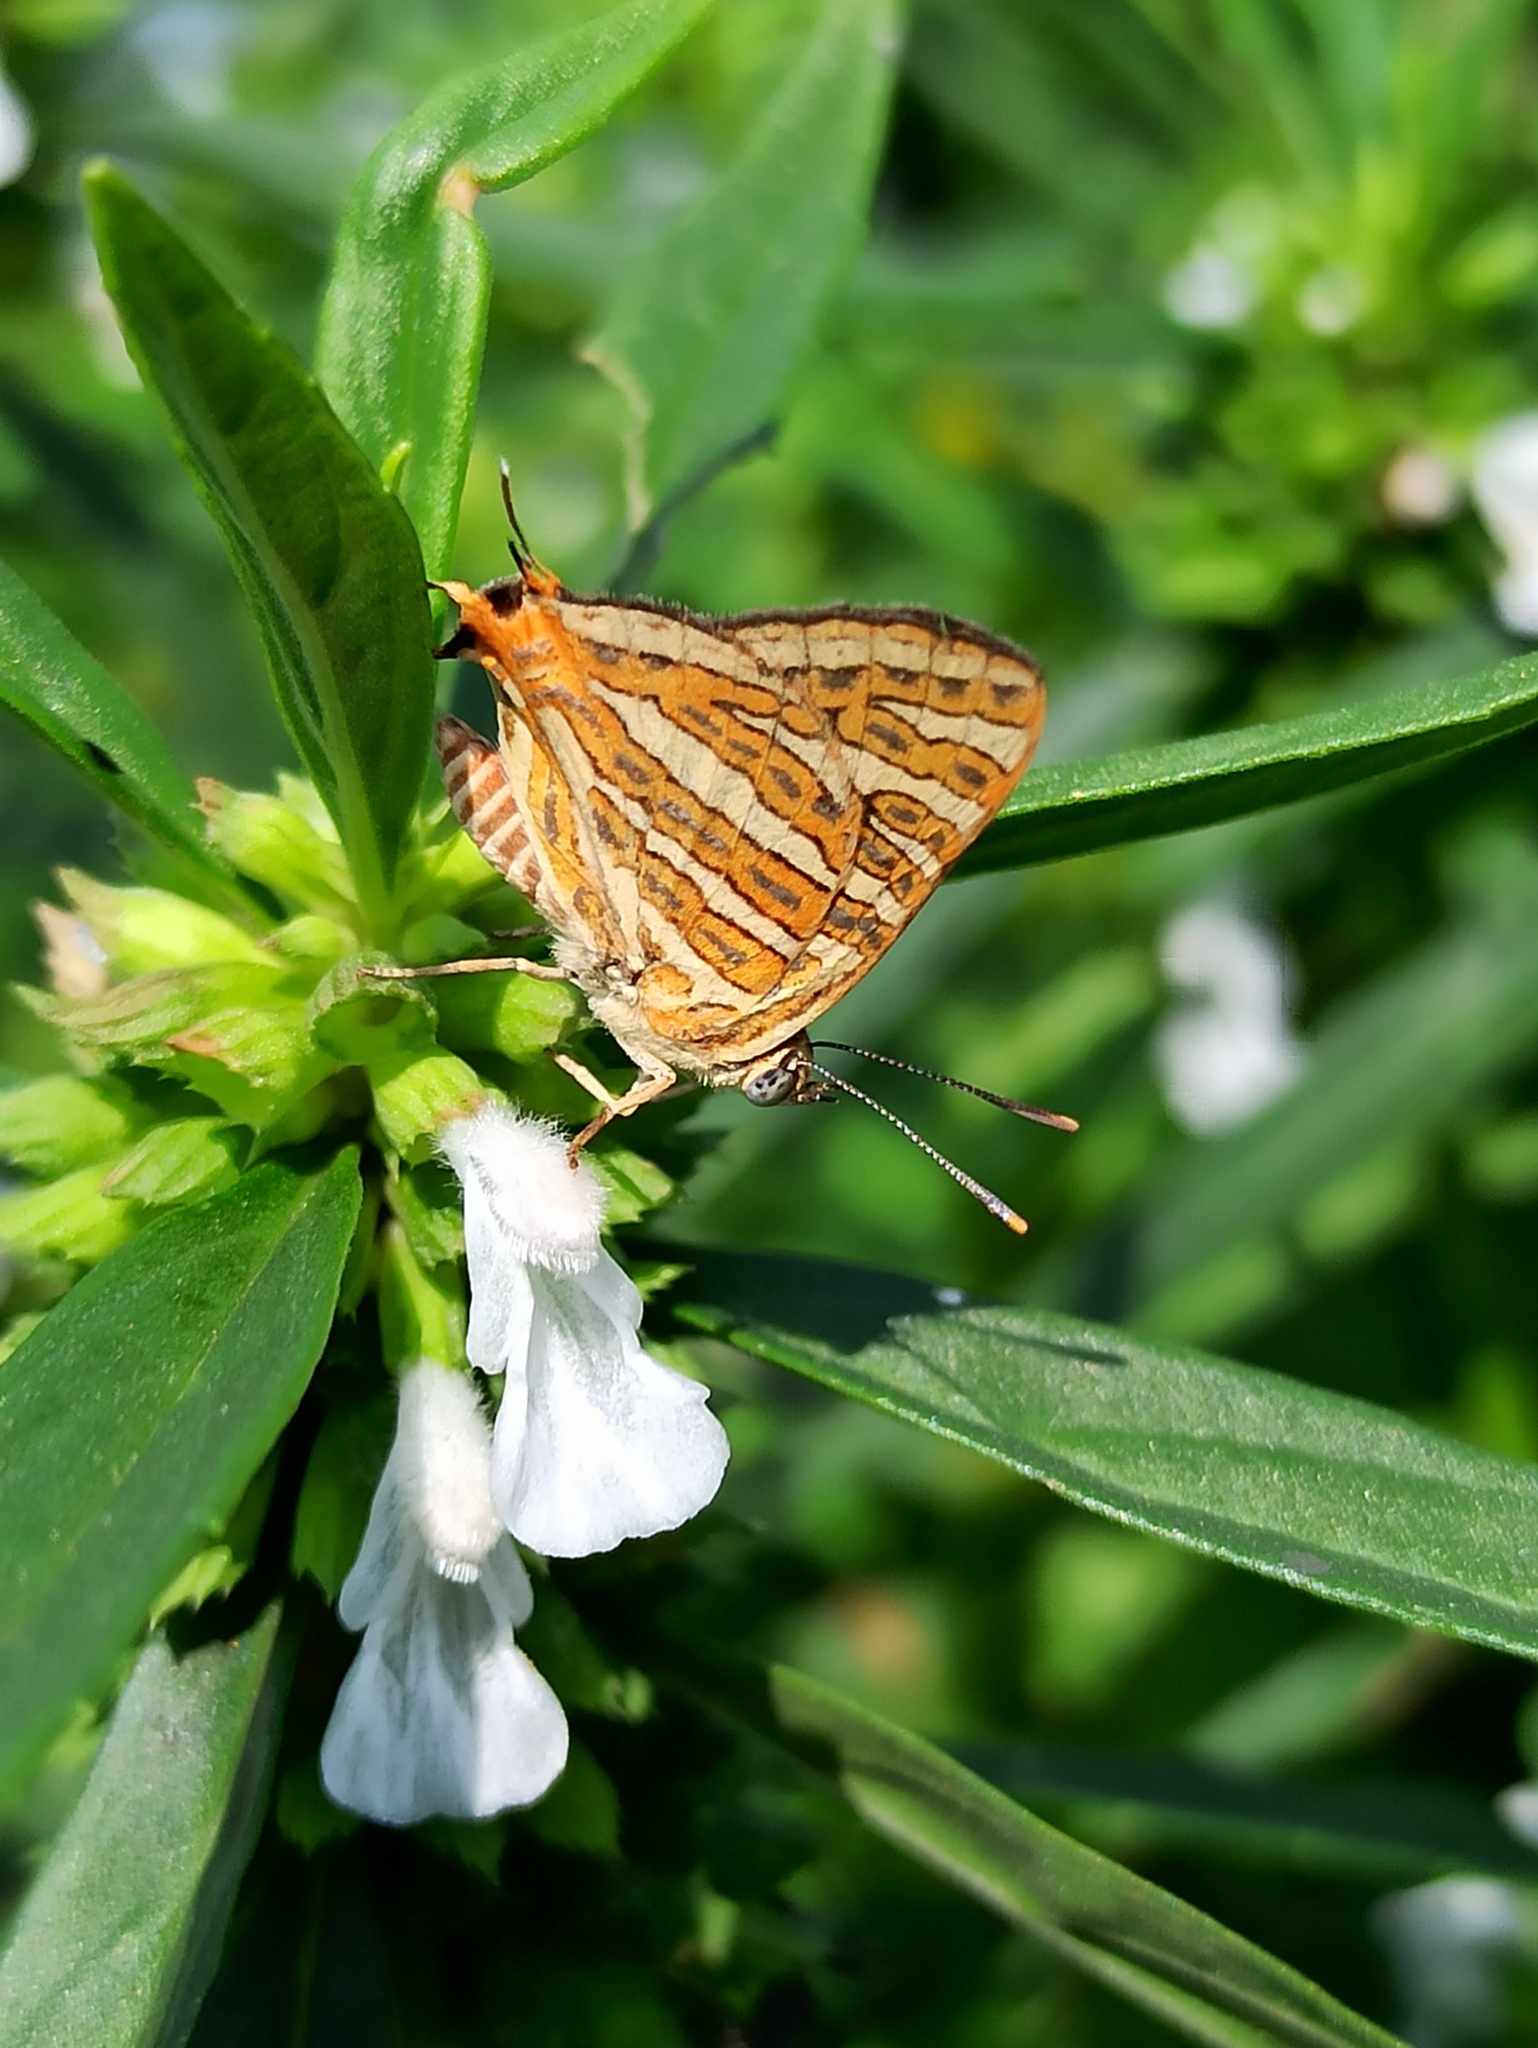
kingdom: Animalia
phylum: Arthropoda
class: Insecta
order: Lepidoptera
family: Lycaenidae
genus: Cigaritis
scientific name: Cigaritis vulcanus
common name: Common silverline
